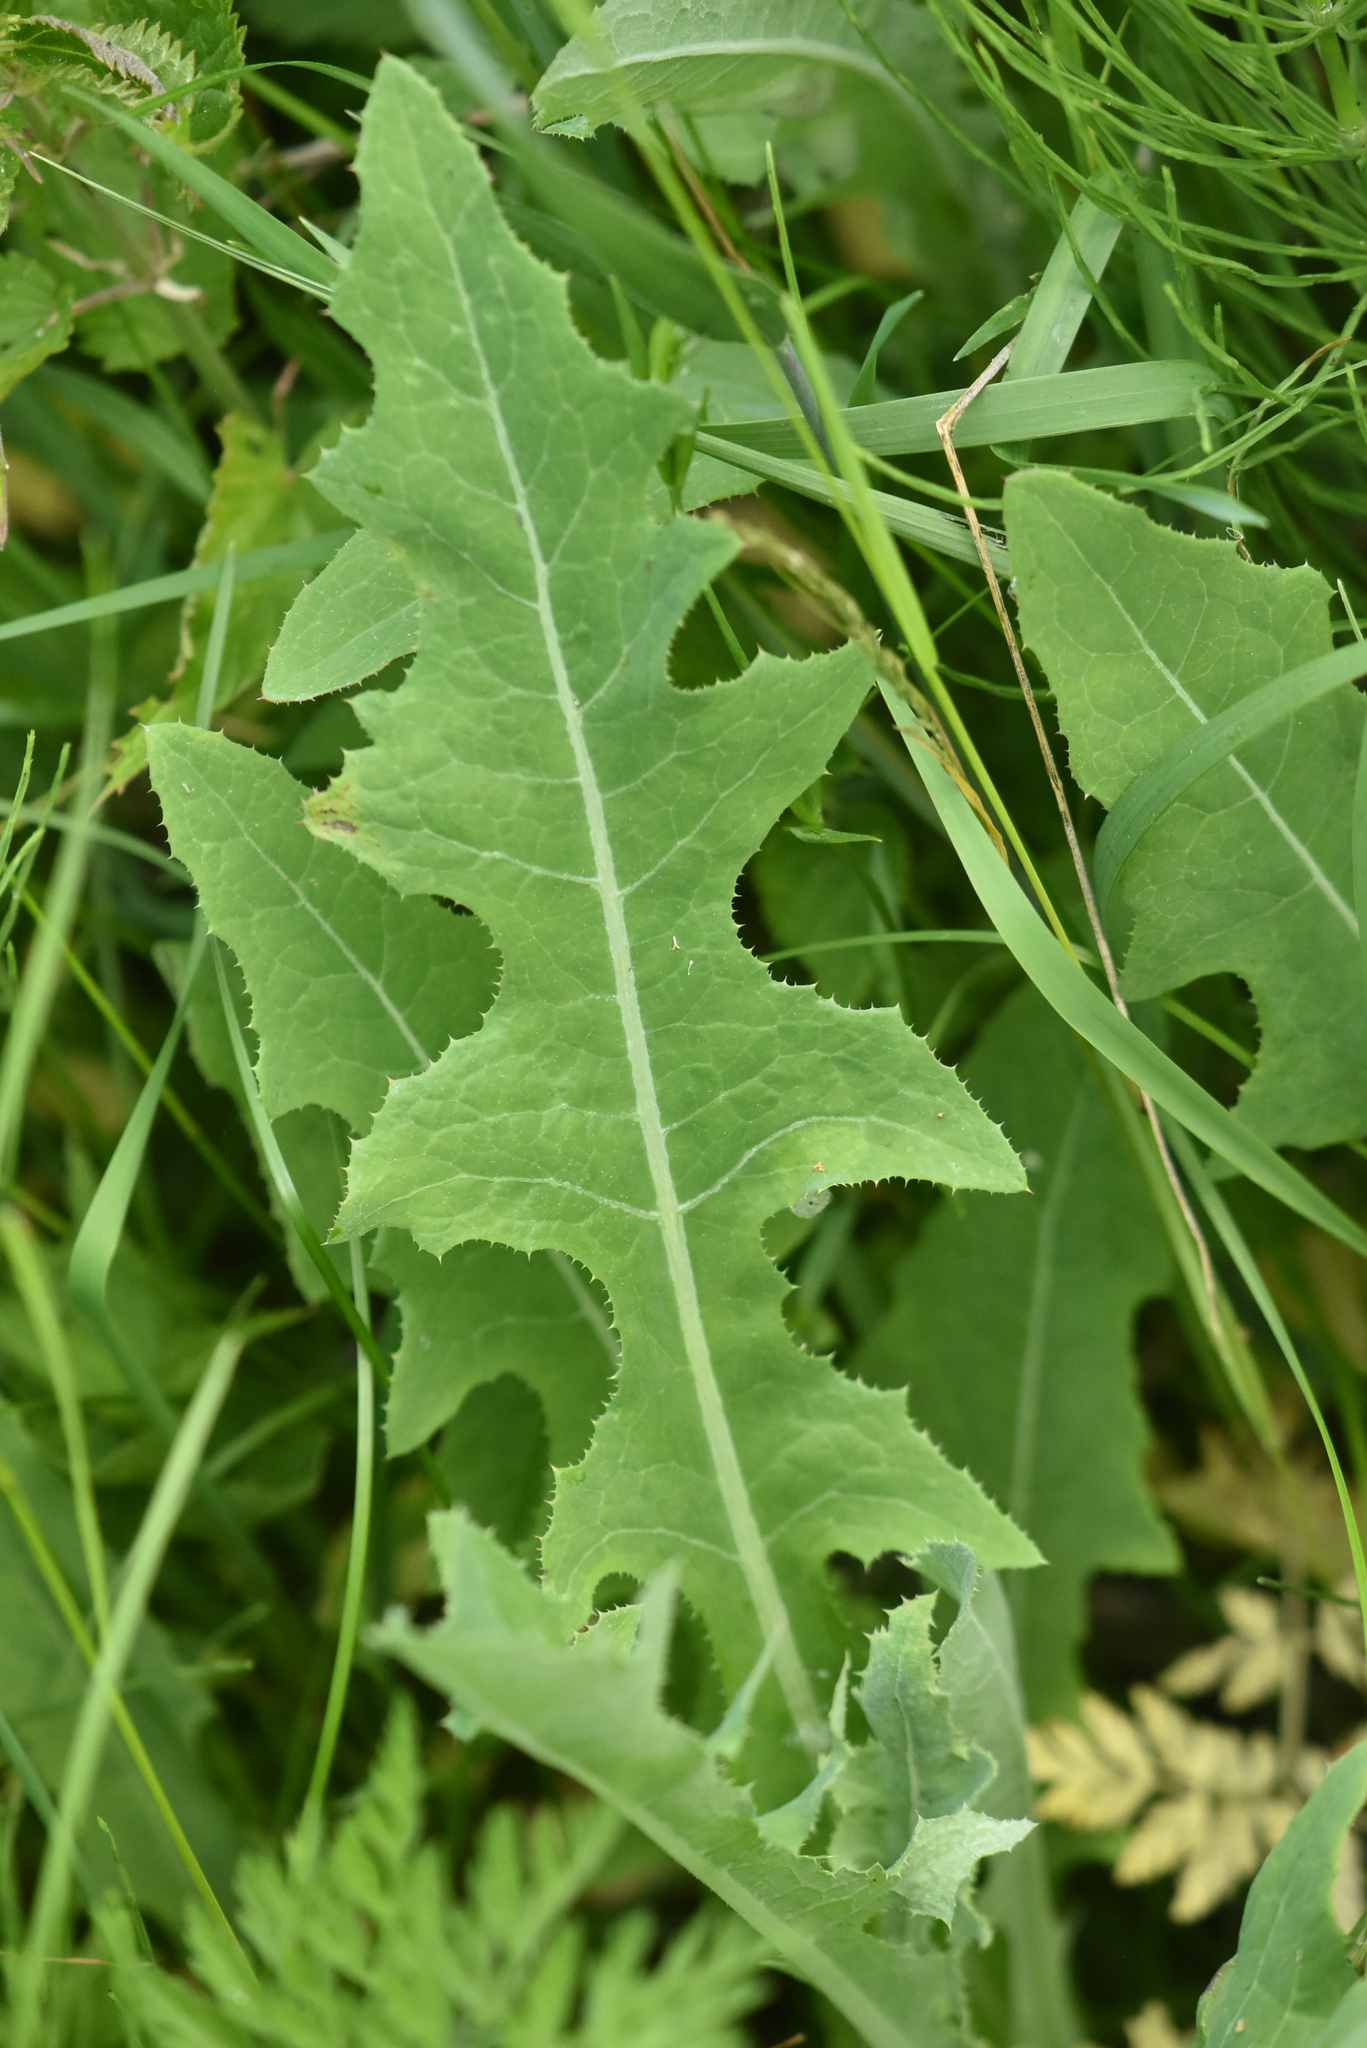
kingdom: Plantae
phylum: Tracheophyta
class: Magnoliopsida
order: Asterales
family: Asteraceae
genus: Sonchus
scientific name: Sonchus arvensis
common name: Perennial sow-thistle
